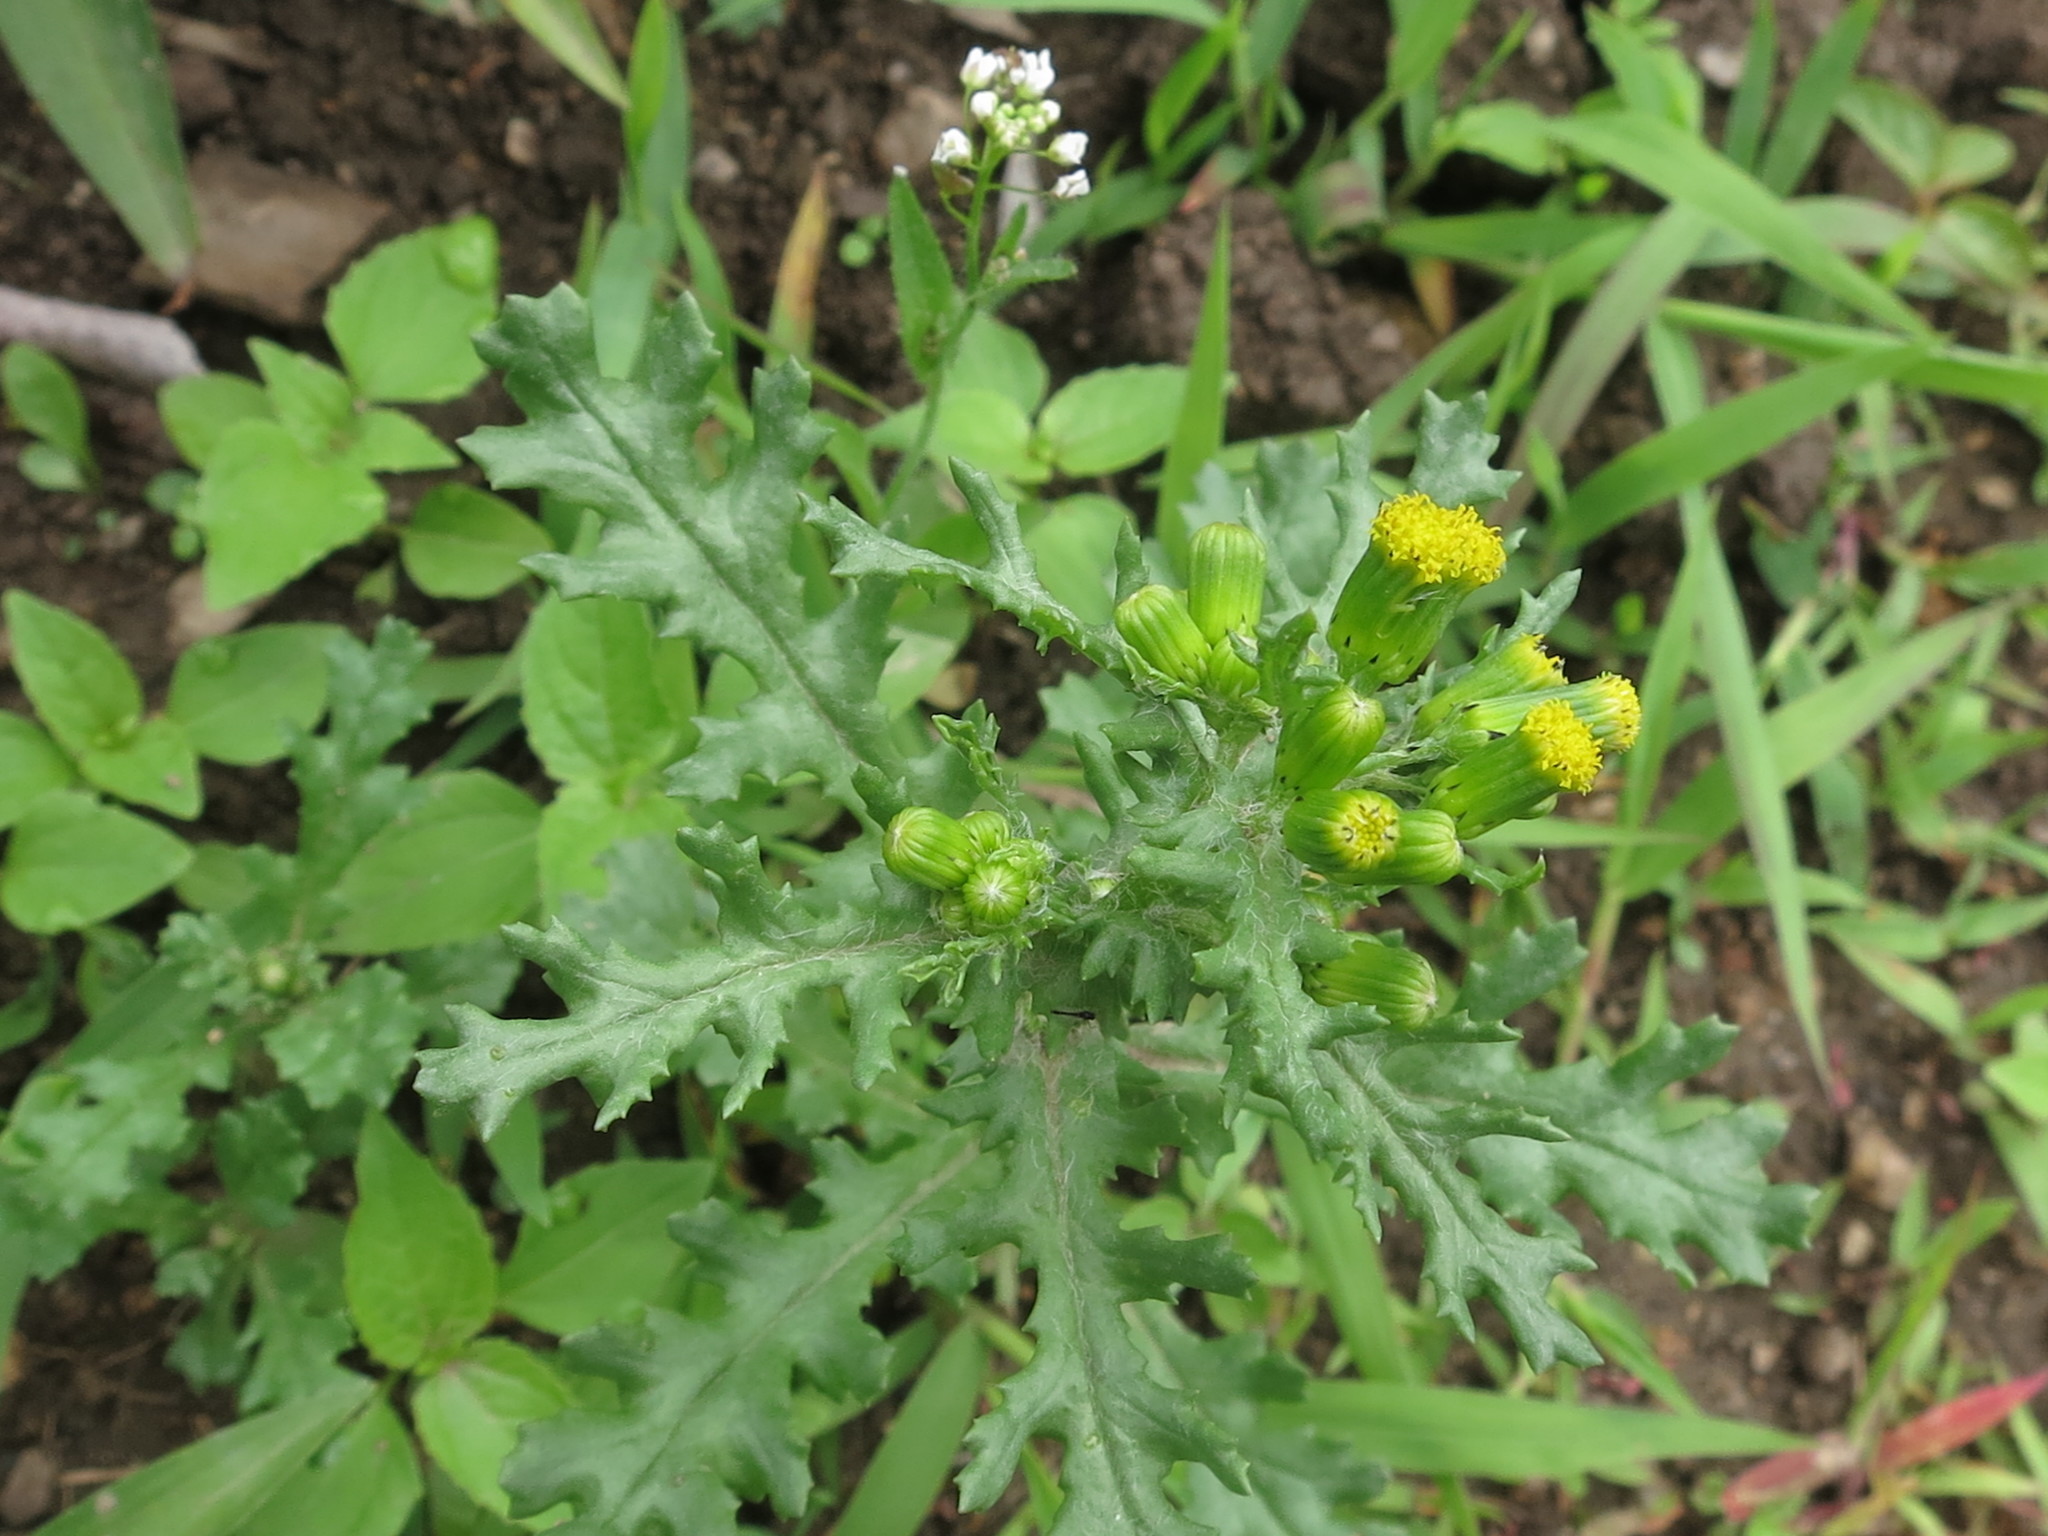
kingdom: Plantae
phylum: Tracheophyta
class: Magnoliopsida
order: Asterales
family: Asteraceae
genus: Senecio
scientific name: Senecio vulgaris
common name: Old-man-in-the-spring
